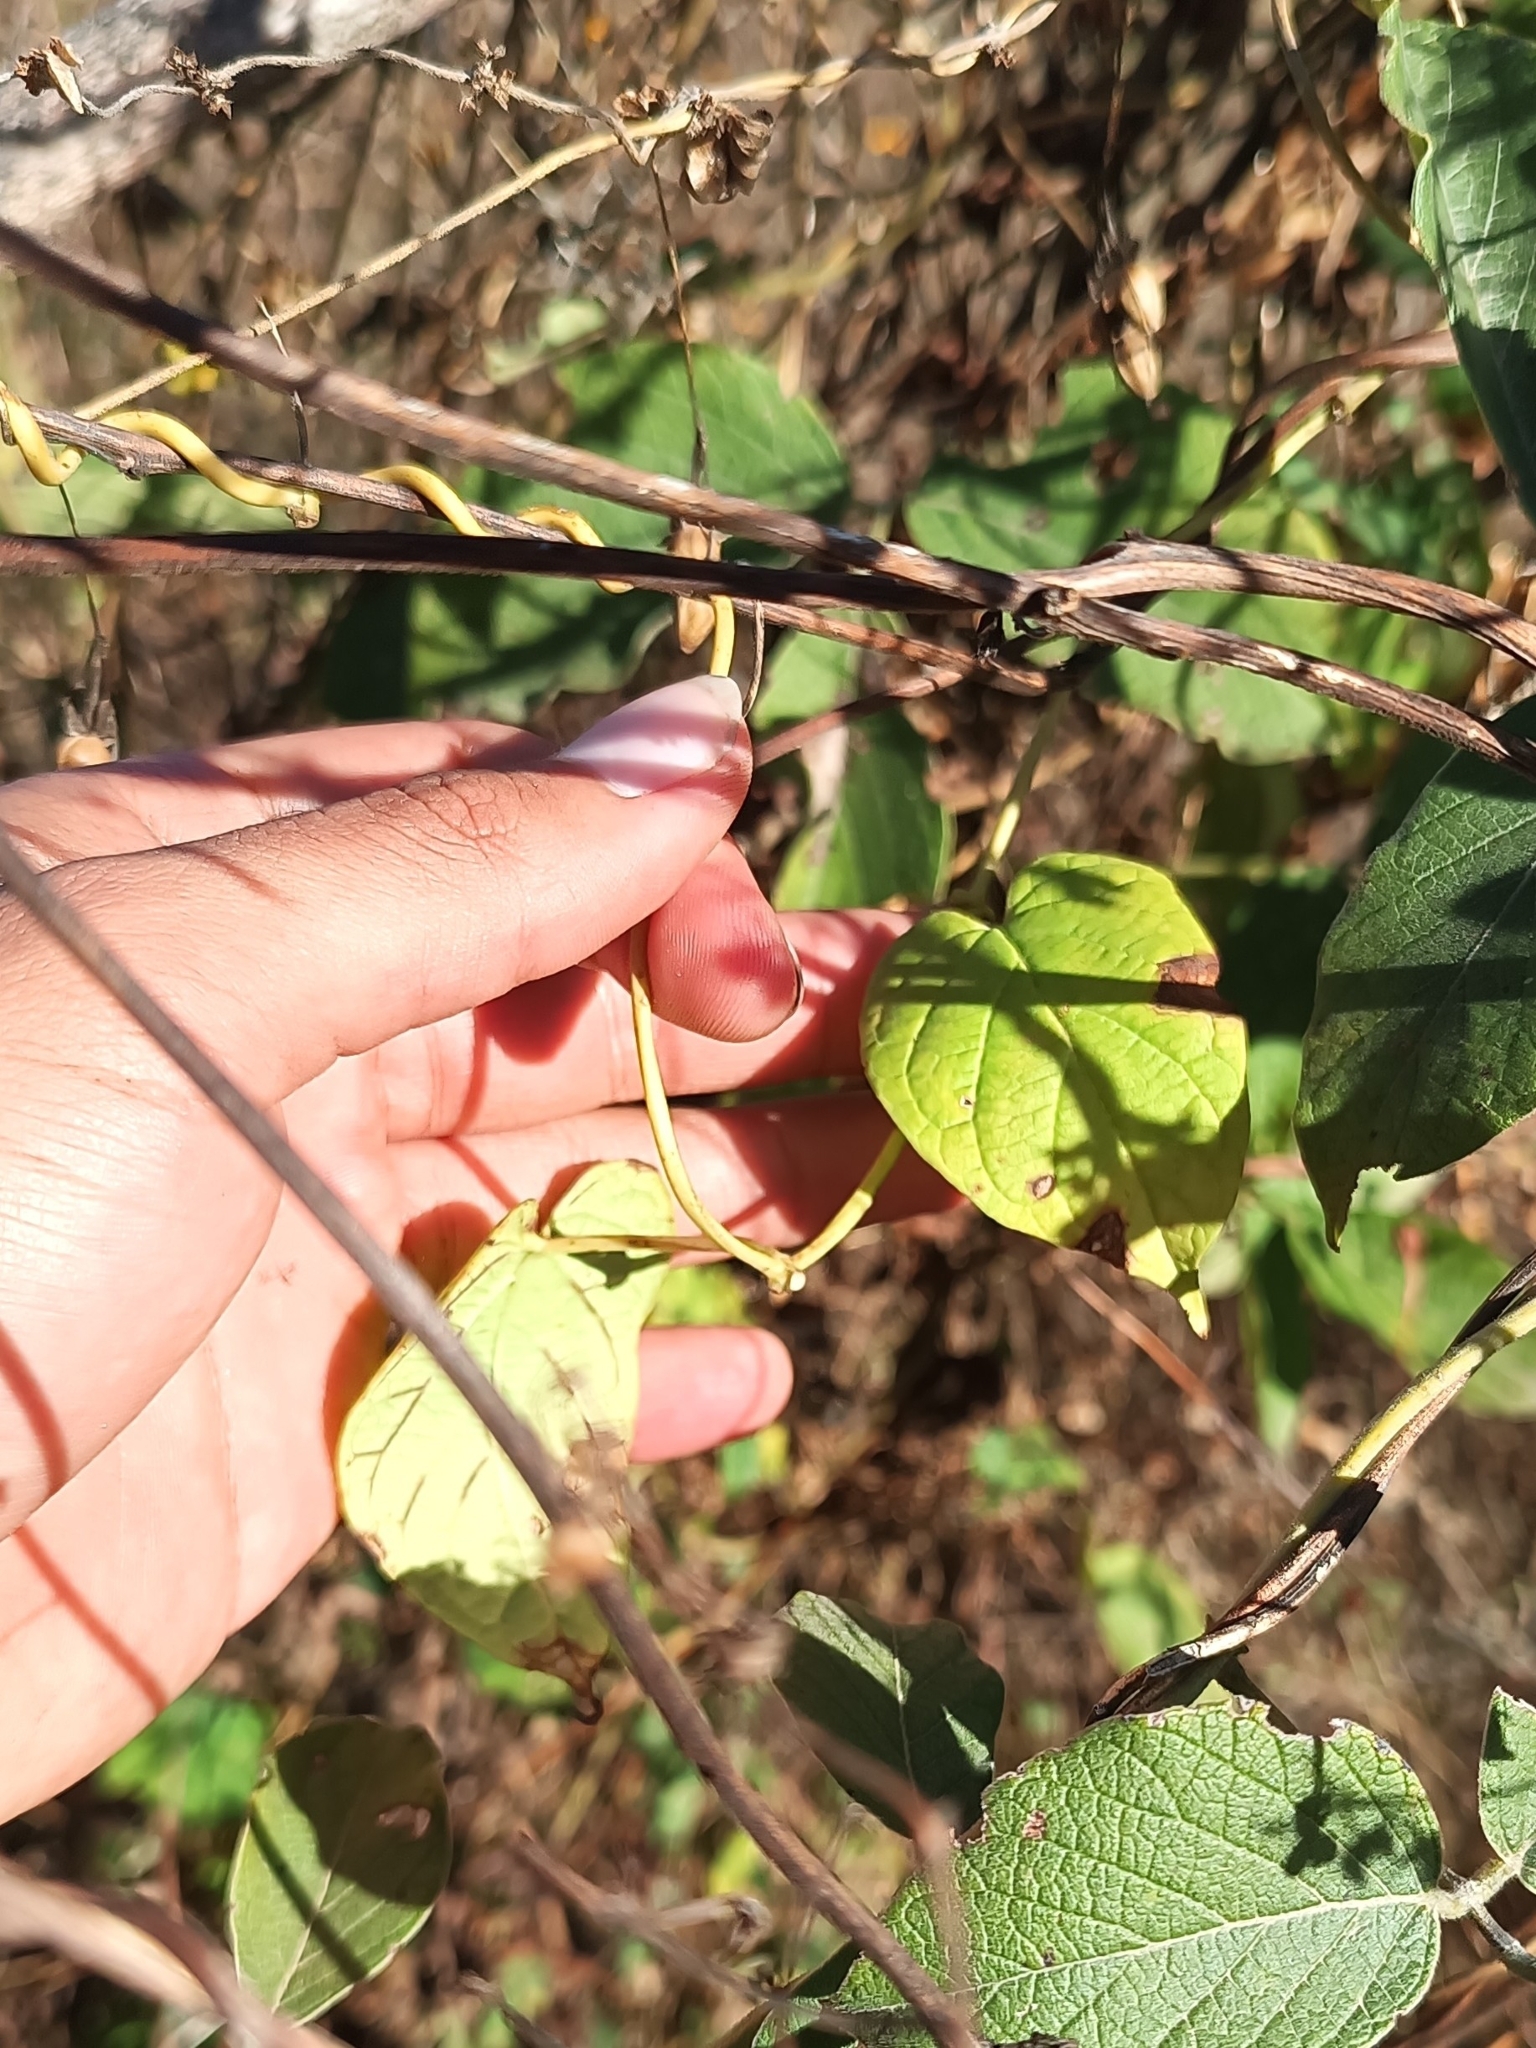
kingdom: Plantae
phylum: Tracheophyta
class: Magnoliopsida
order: Gentianales
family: Apocynaceae
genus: Cynanchum
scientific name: Cynanchum foetidum
